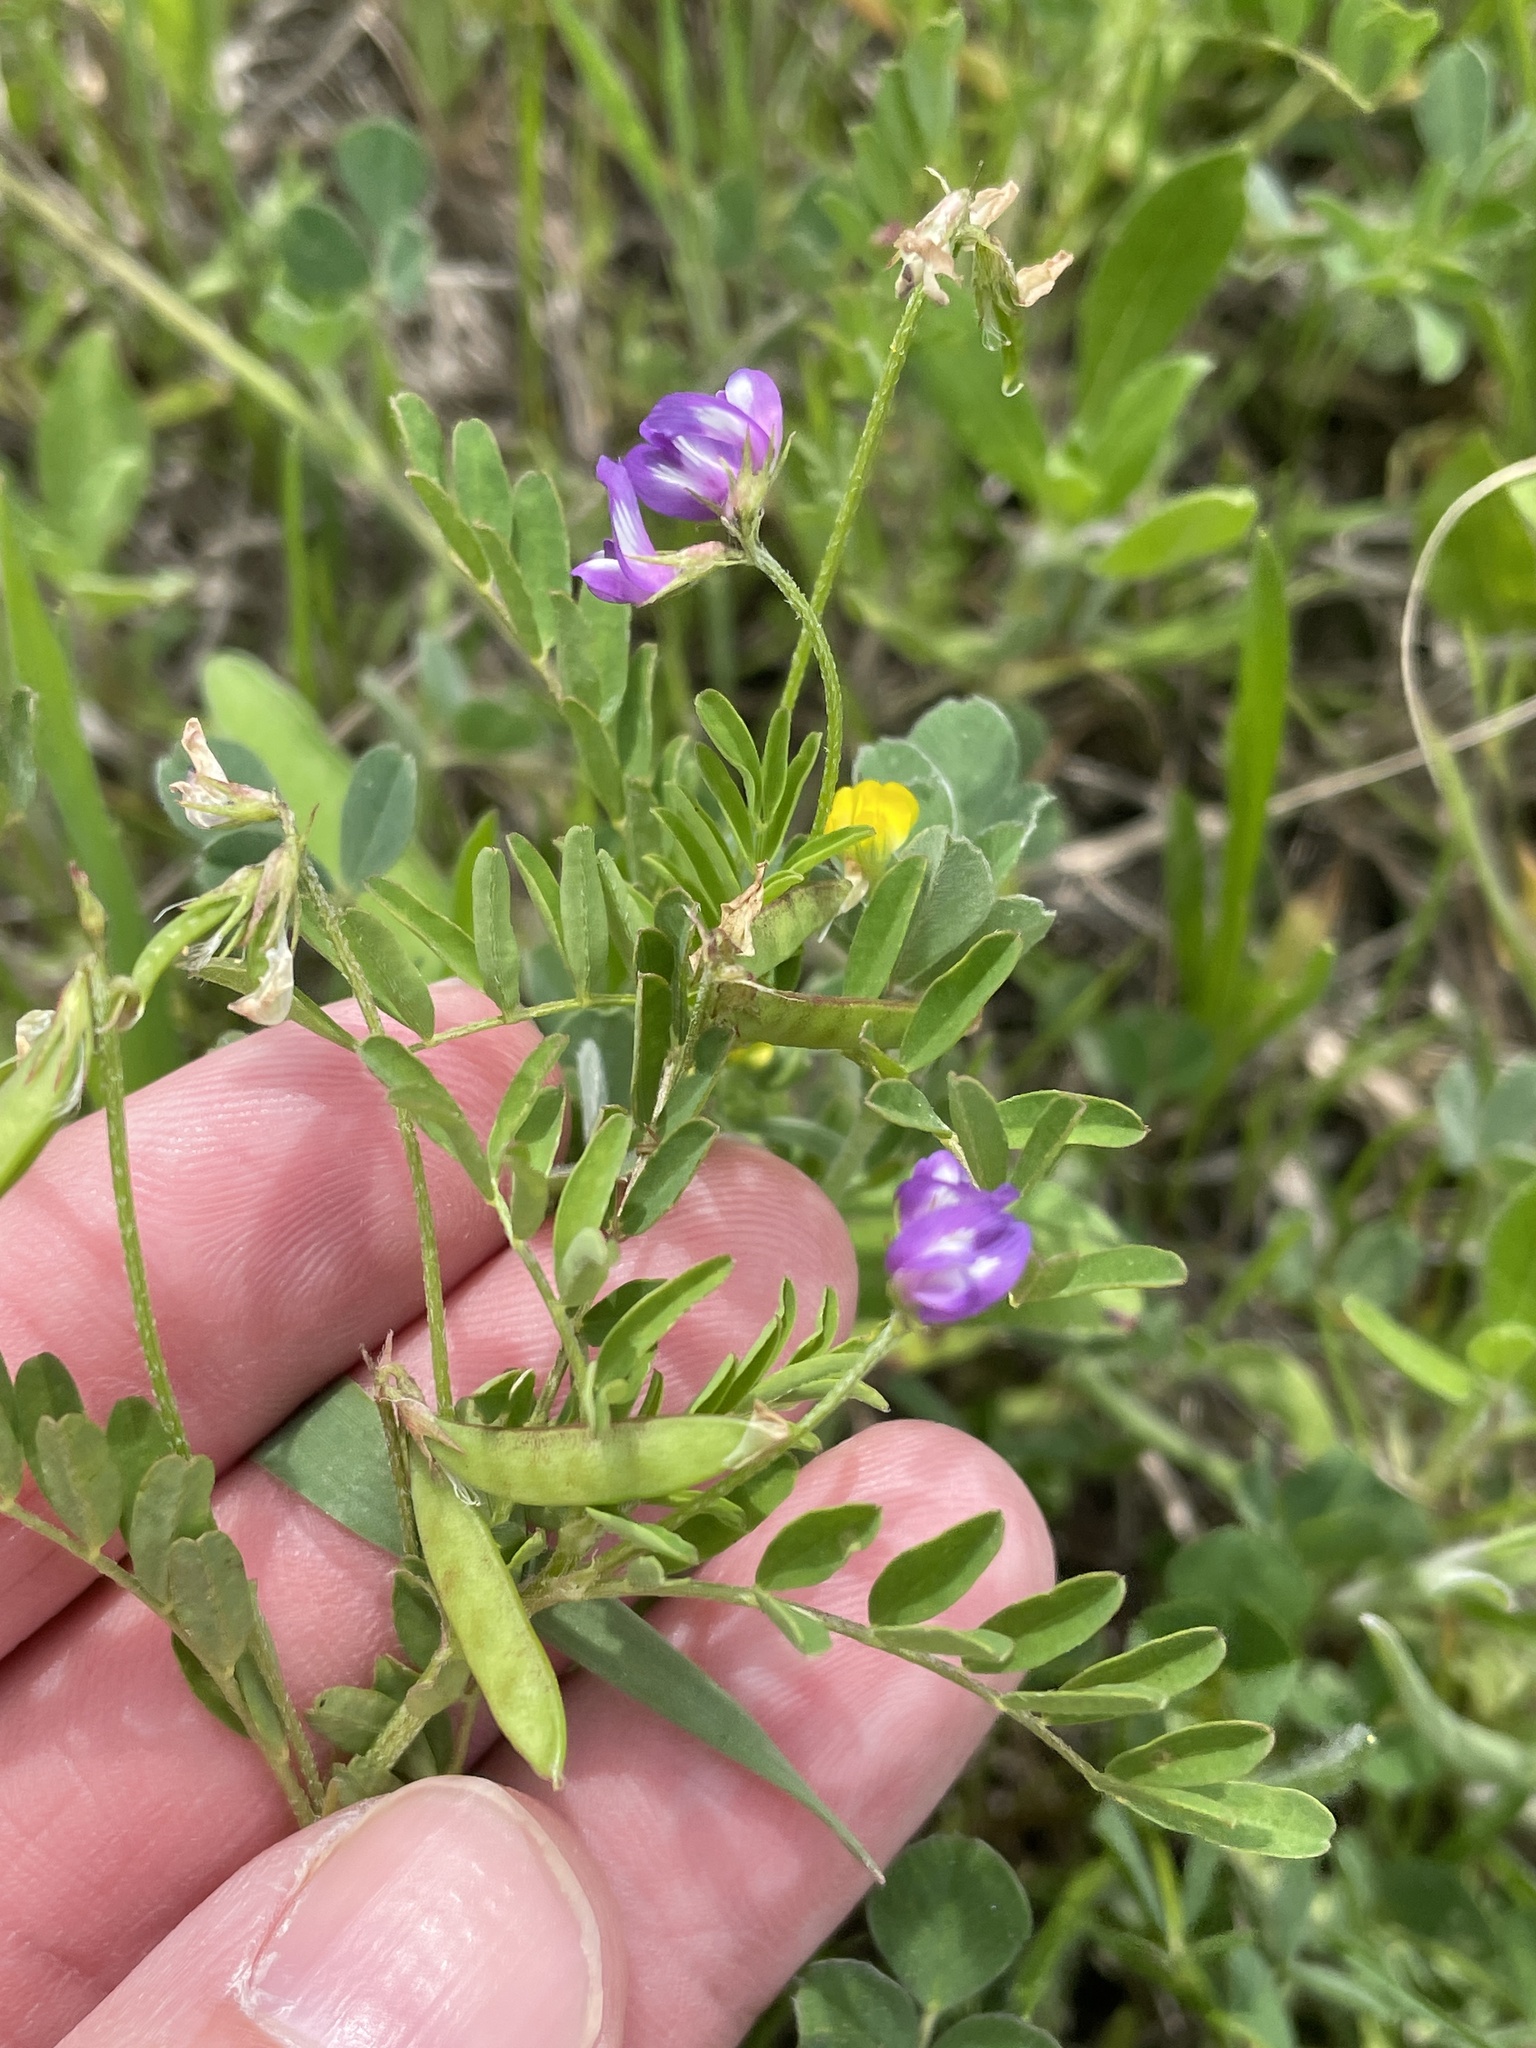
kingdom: Plantae
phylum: Tracheophyta
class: Magnoliopsida
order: Fabales
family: Fabaceae
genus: Astragalus
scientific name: Astragalus nuttallianus
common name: Smallflowered milkvetch
